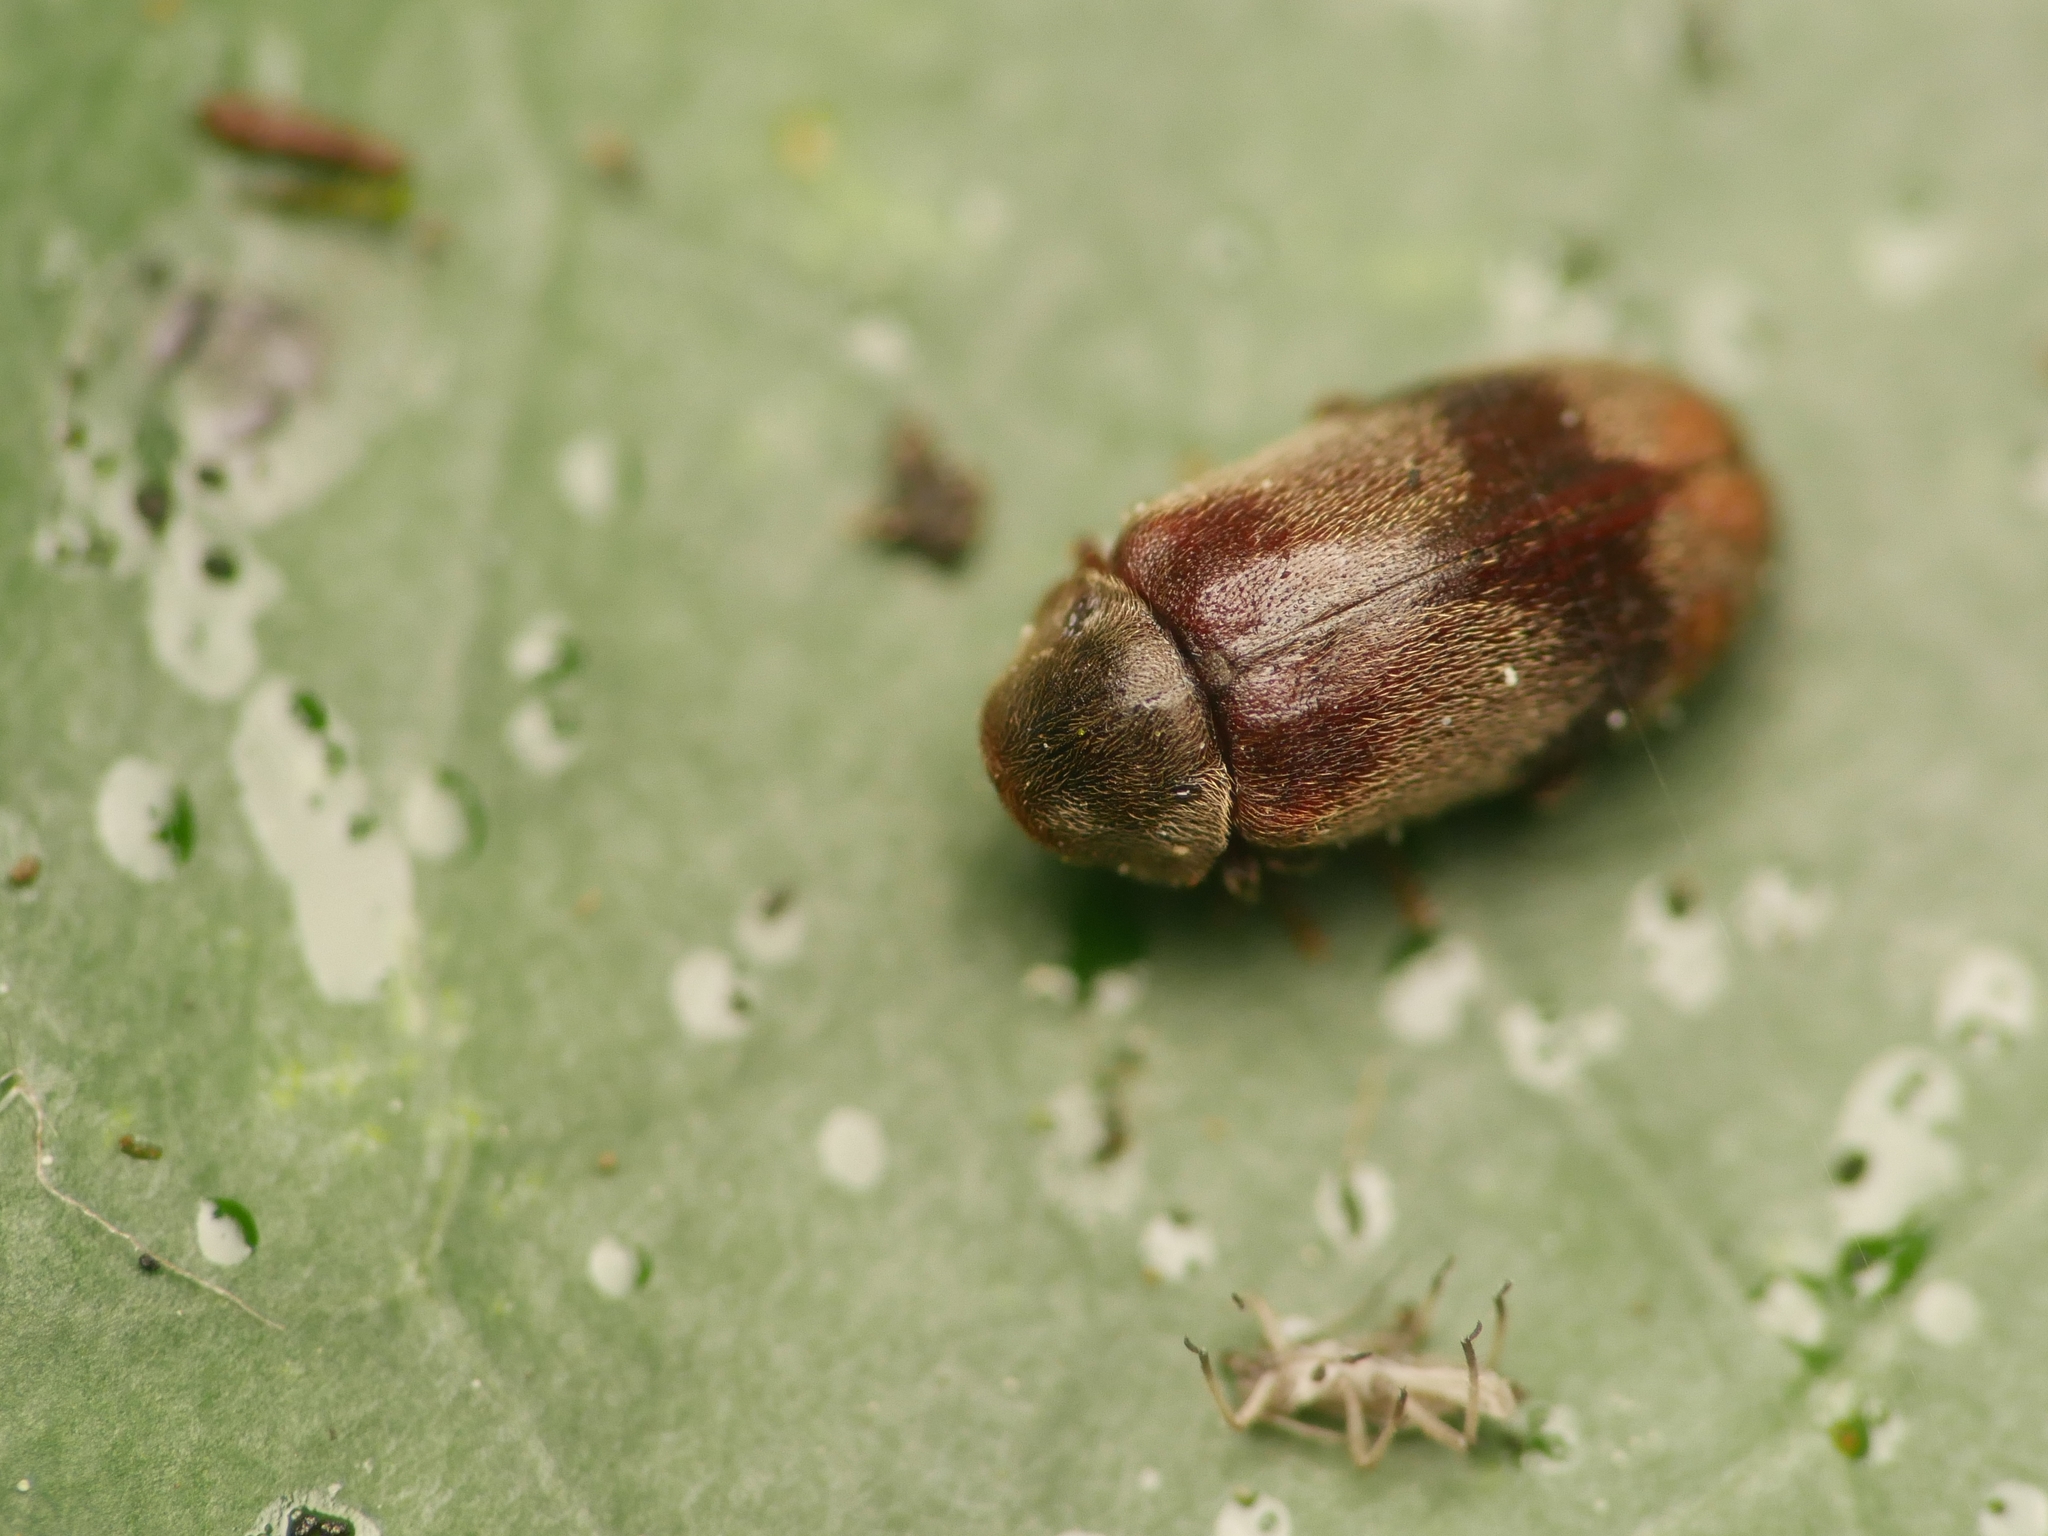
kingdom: Animalia
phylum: Arthropoda
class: Insecta
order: Coleoptera
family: Ptinidae
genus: Ochina
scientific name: Ochina ptinoides
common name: Ivy boring beetle
